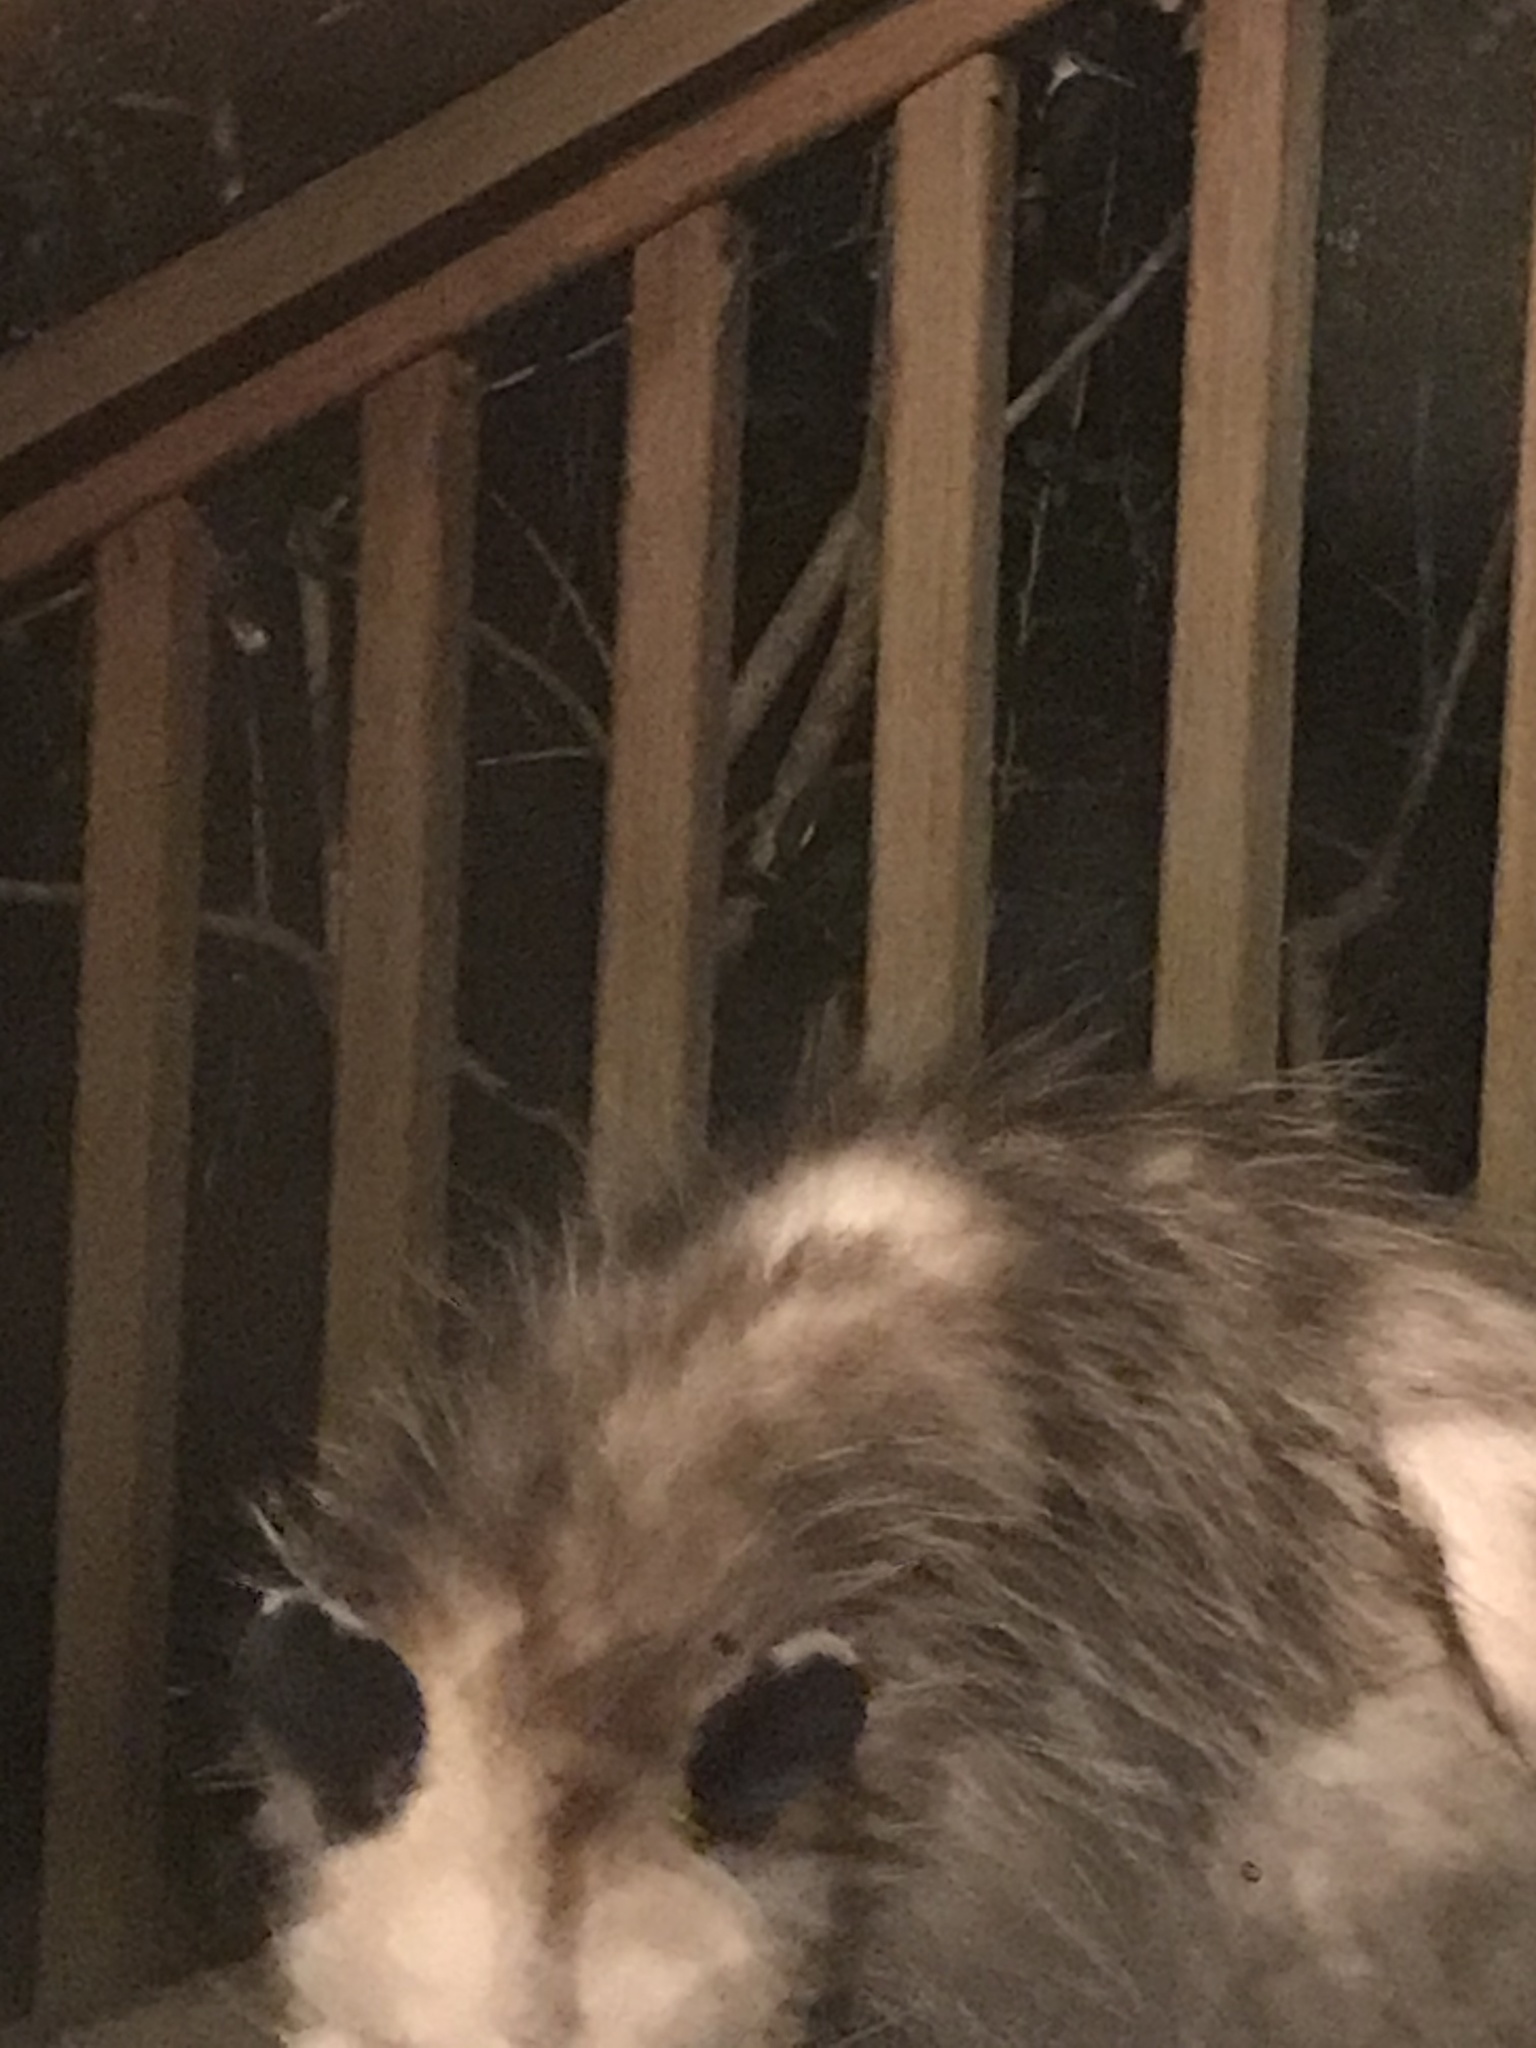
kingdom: Animalia
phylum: Chordata
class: Mammalia
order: Didelphimorphia
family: Didelphidae
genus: Didelphis
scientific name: Didelphis virginiana
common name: Virginia opossum
